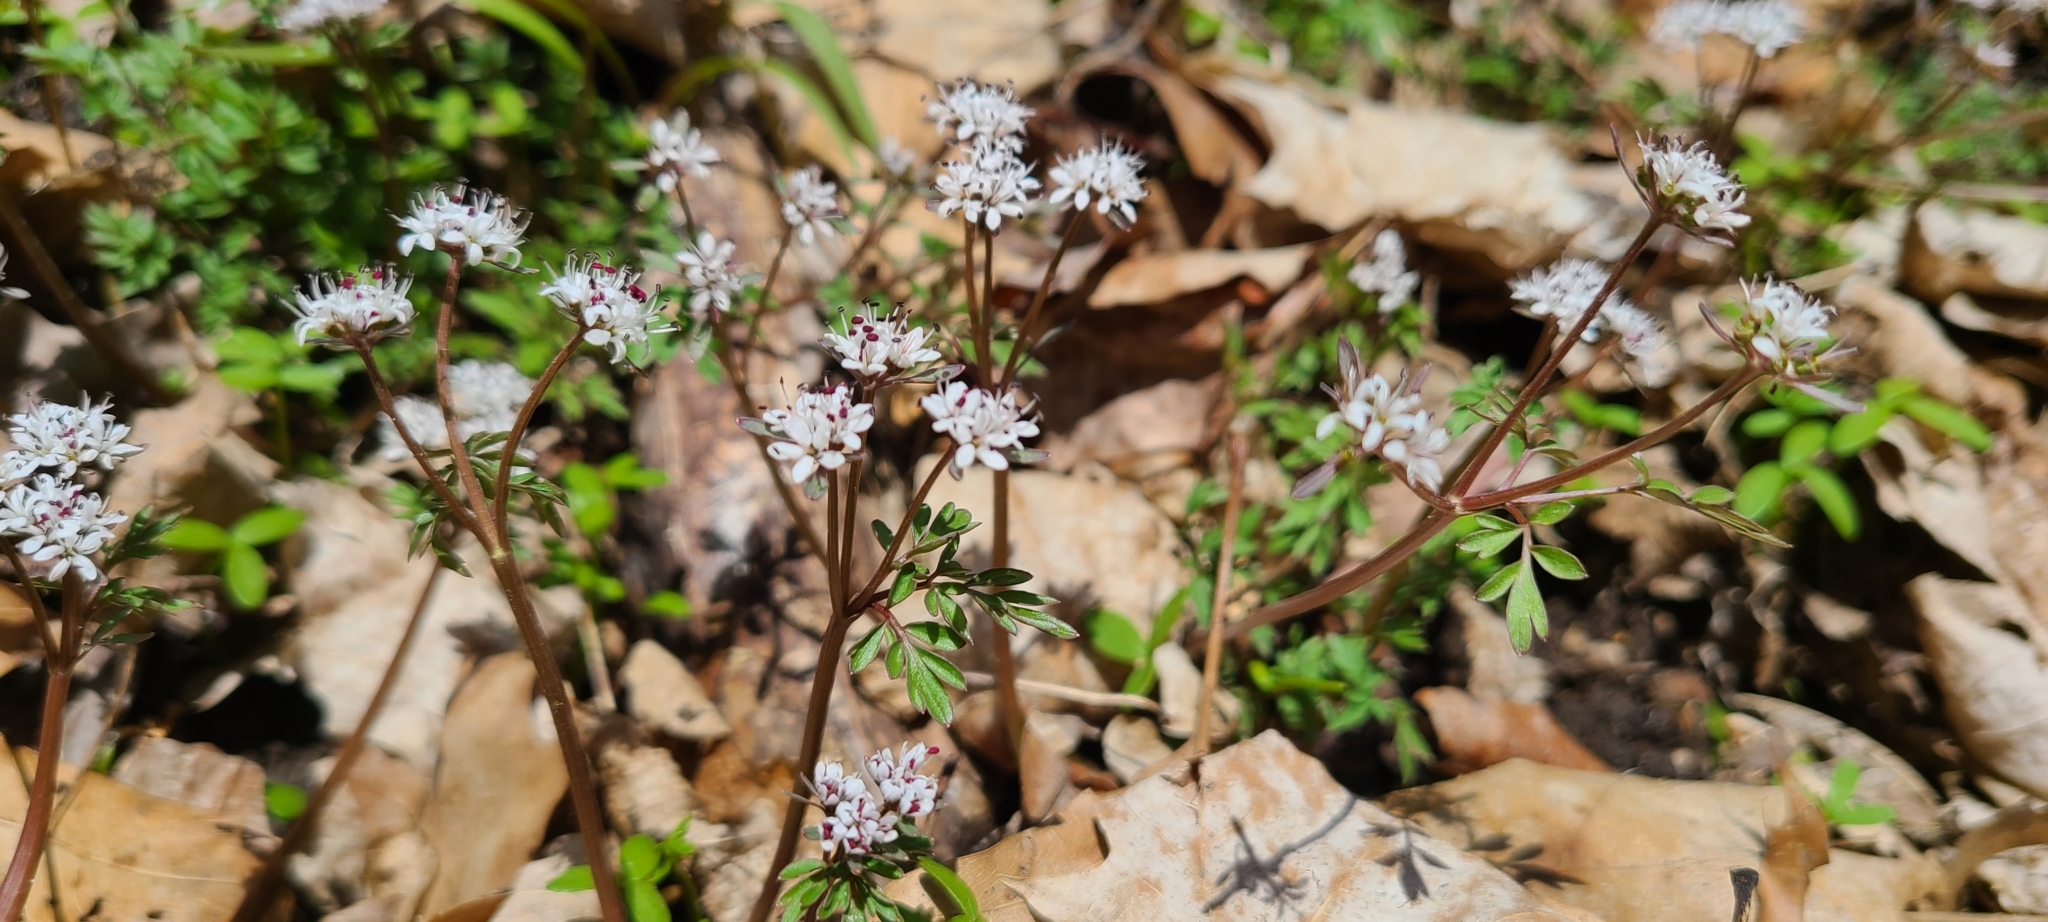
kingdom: Plantae
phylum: Tracheophyta
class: Magnoliopsida
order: Apiales
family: Apiaceae
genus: Erigenia
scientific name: Erigenia bulbosa
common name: Pepper-and-salt
